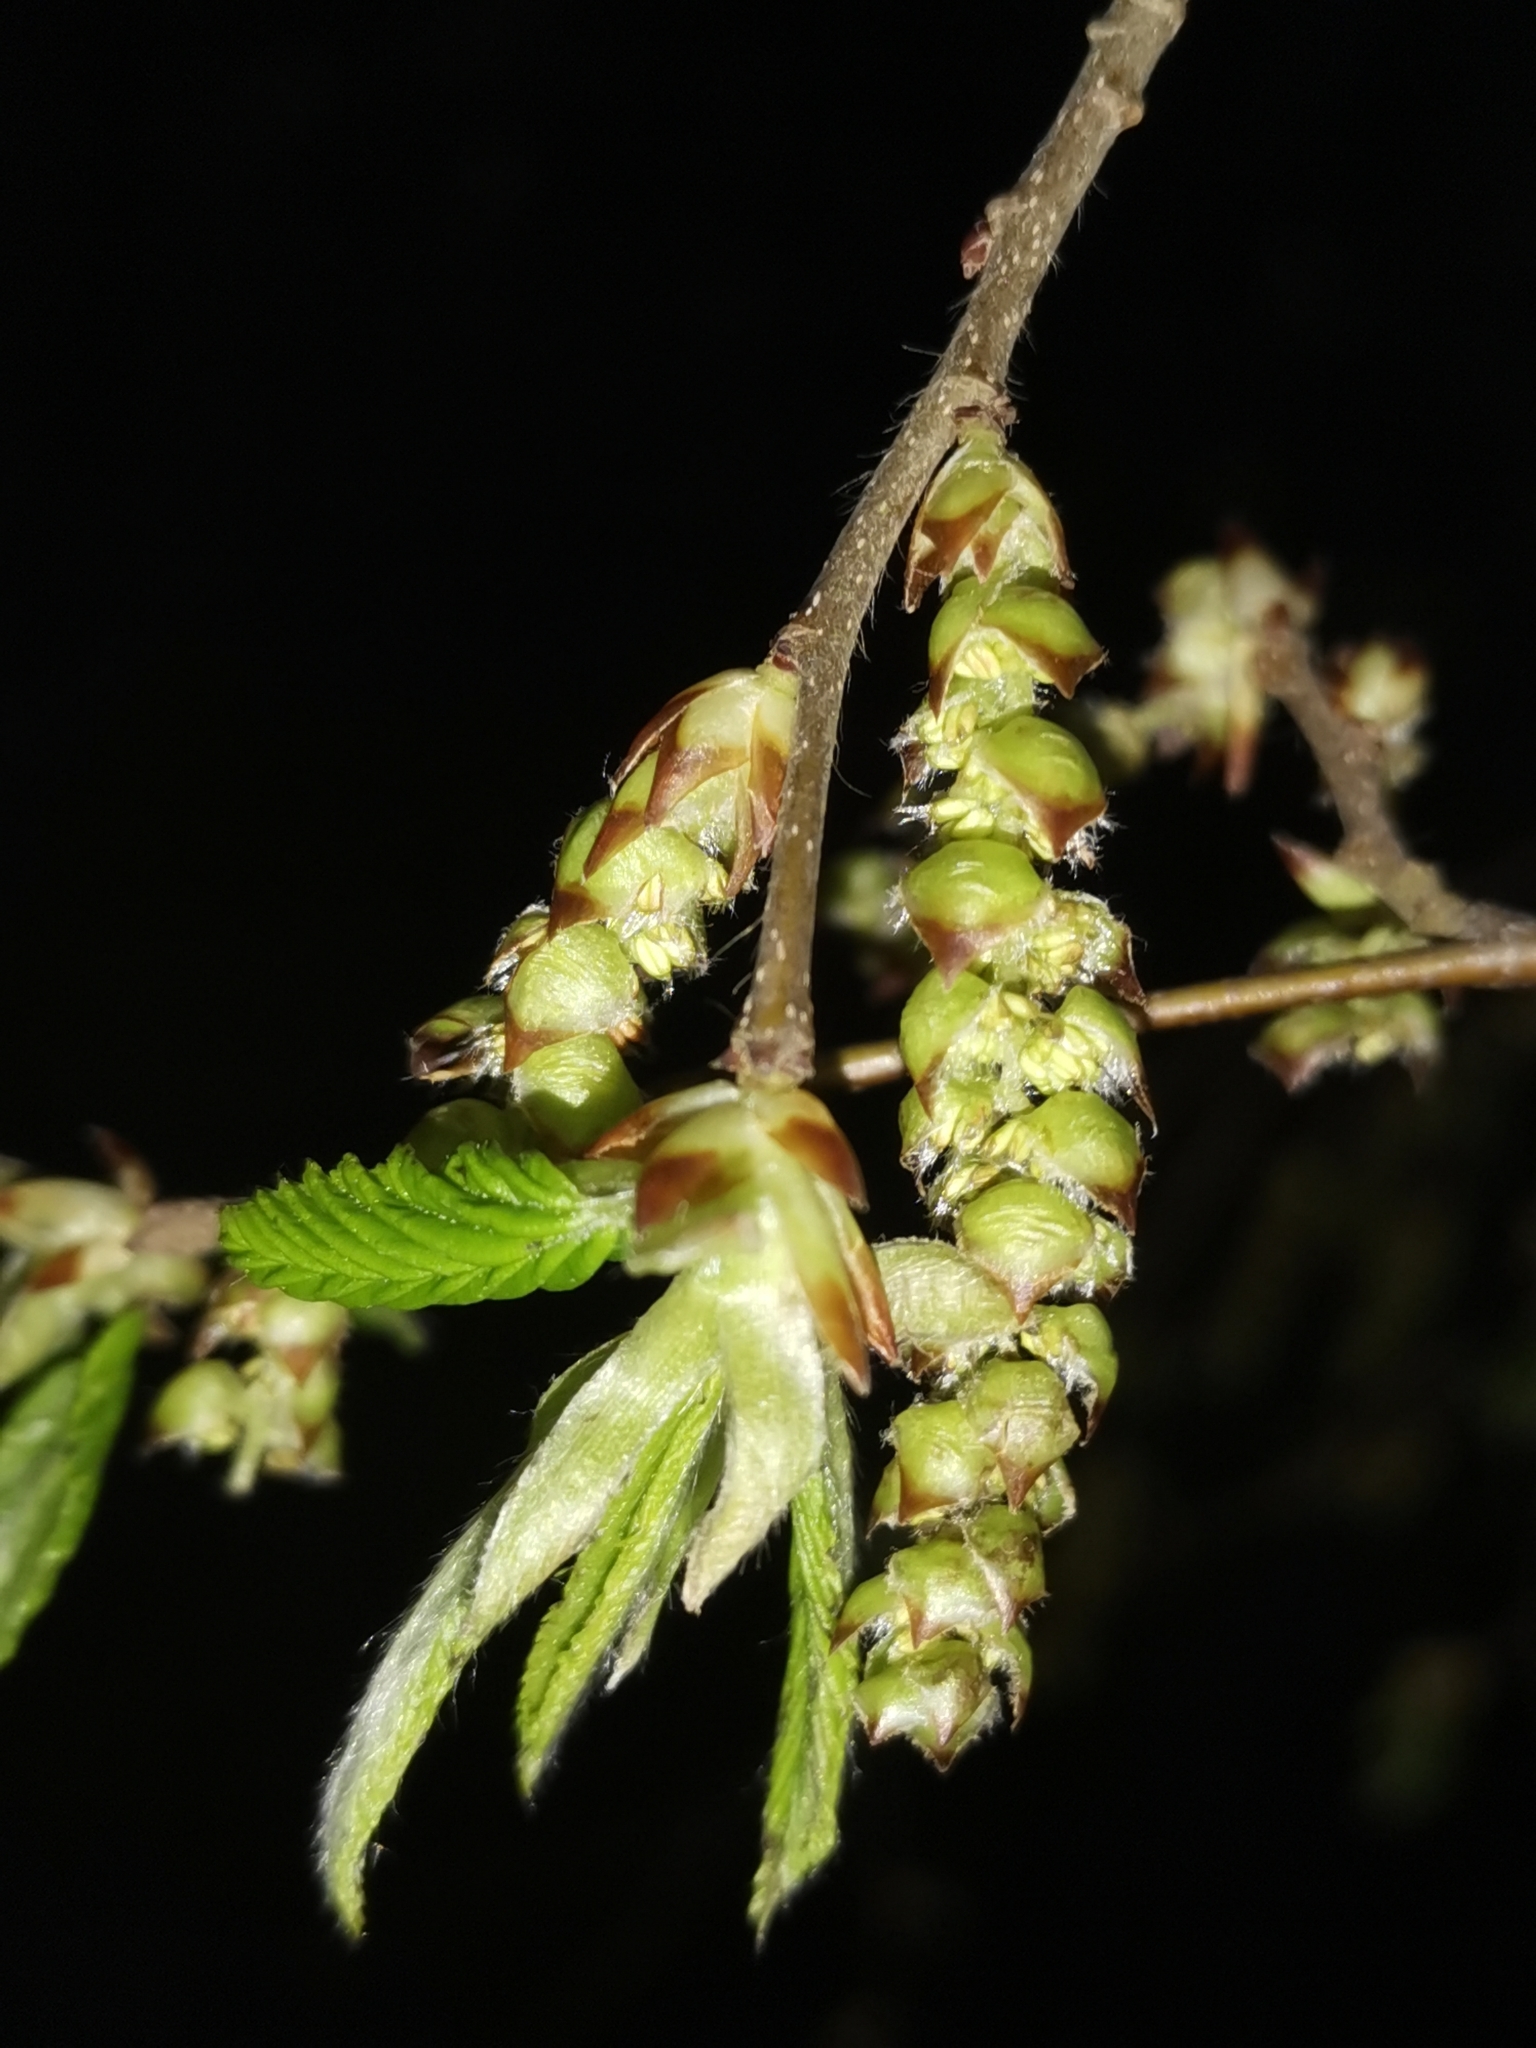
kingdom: Plantae
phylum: Tracheophyta
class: Magnoliopsida
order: Fagales
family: Betulaceae
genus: Carpinus
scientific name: Carpinus betulus
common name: Hornbeam
